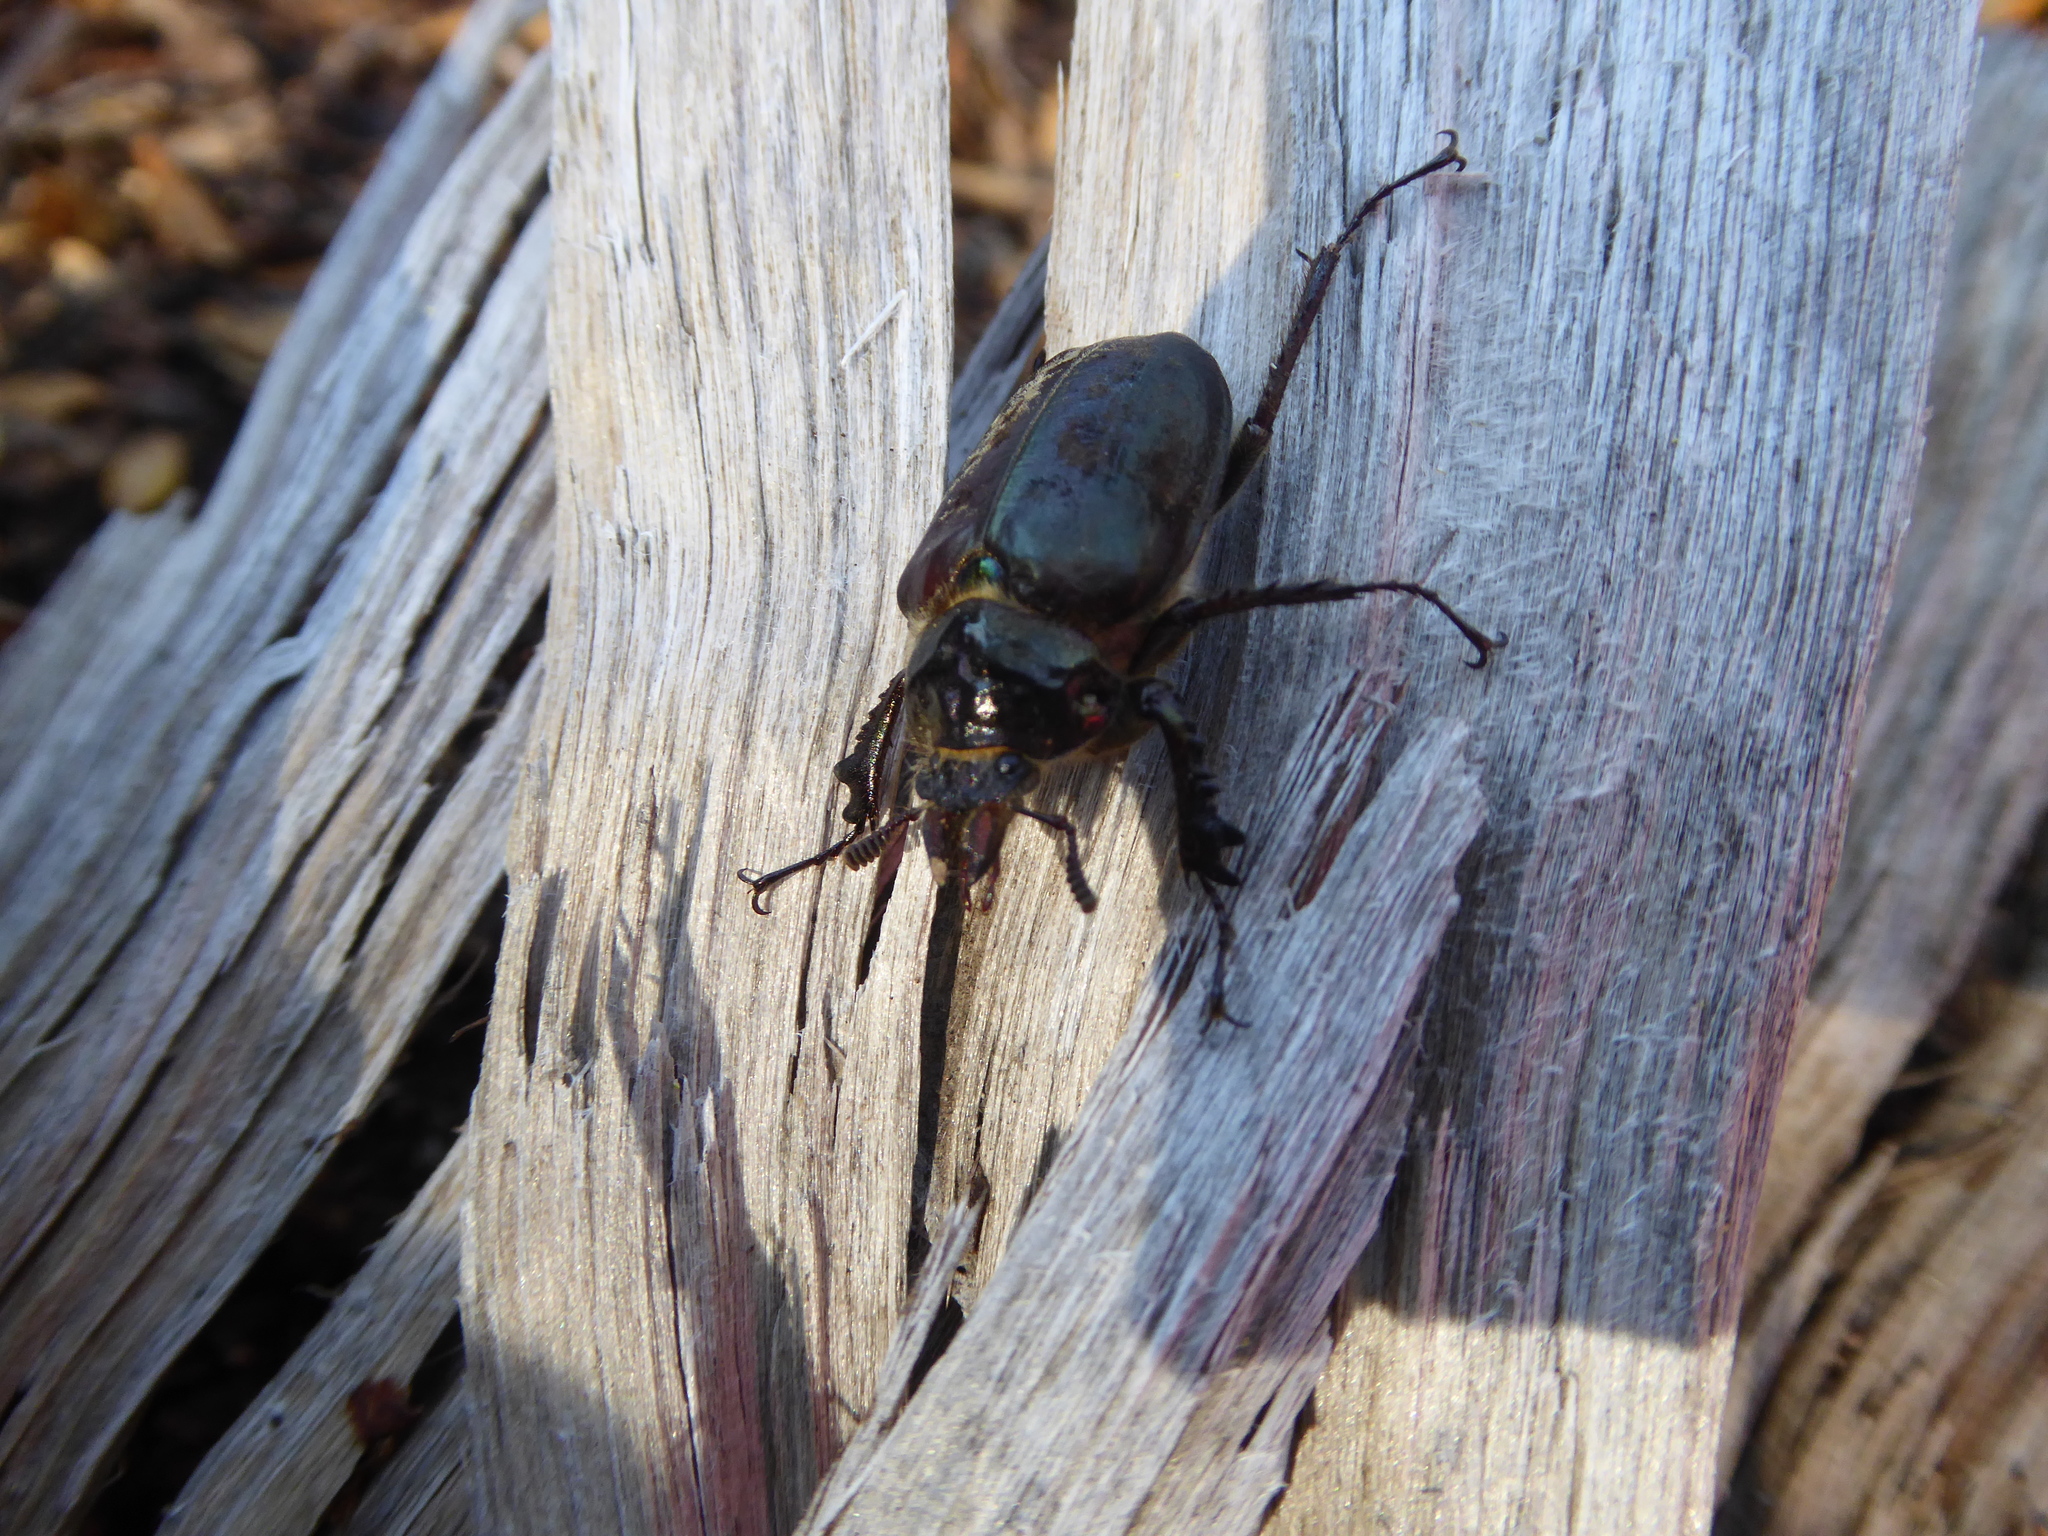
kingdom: Animalia
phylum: Arthropoda
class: Insecta
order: Coleoptera
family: Lucanidae
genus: Chiasognathus
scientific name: Chiasognathus grantii
